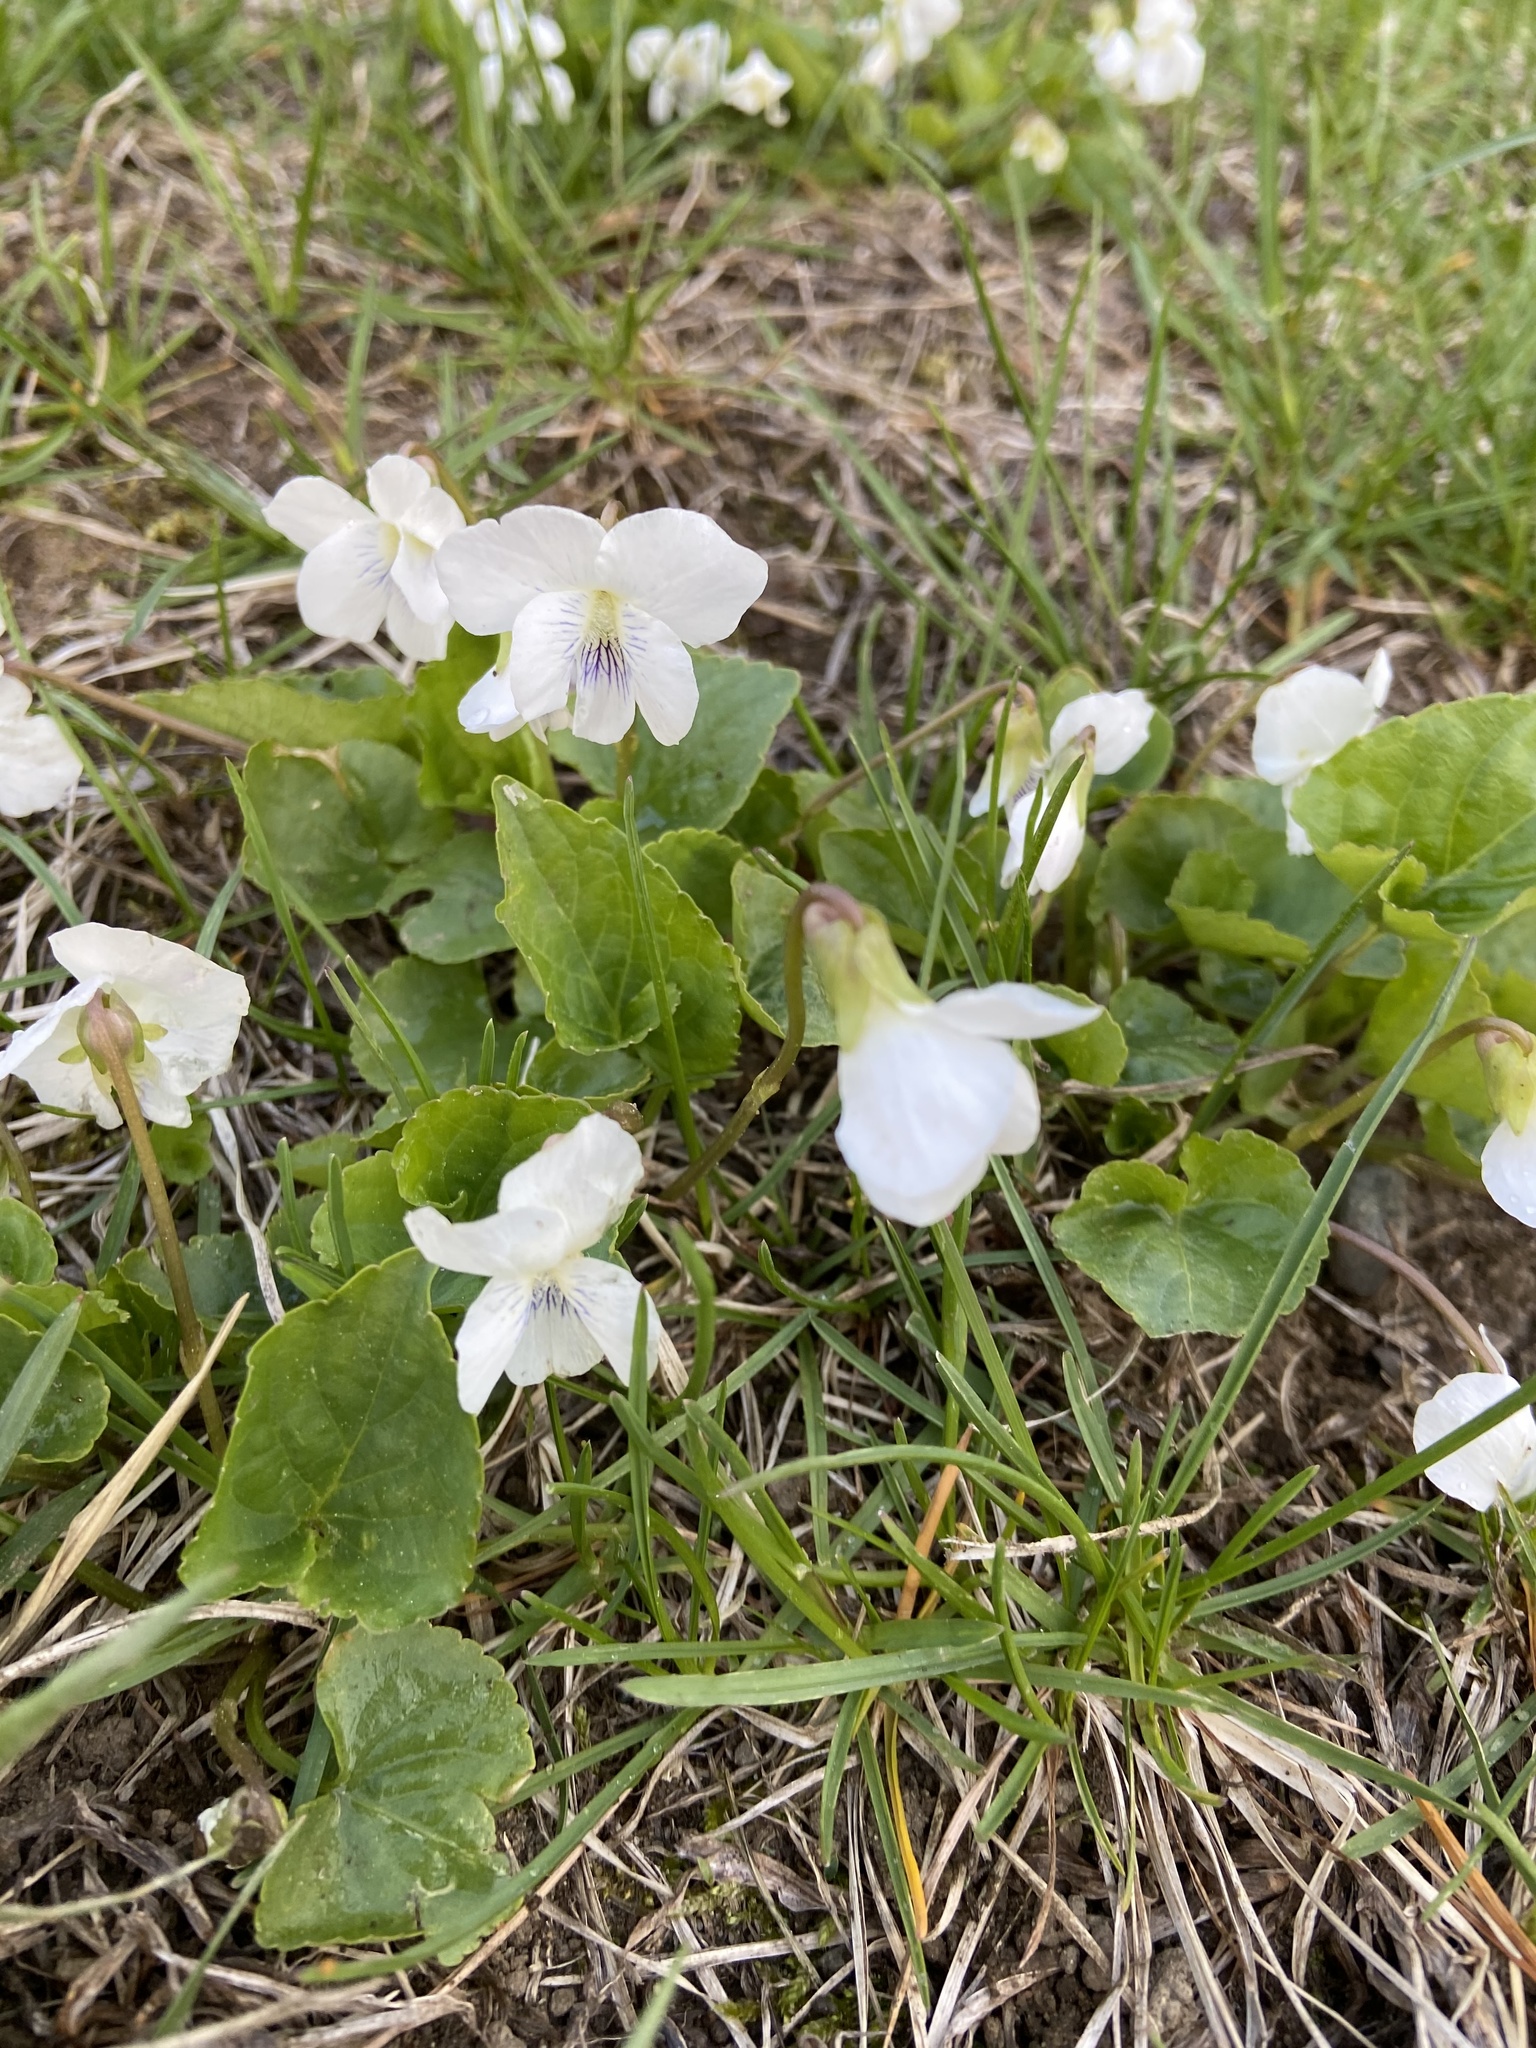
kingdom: Plantae
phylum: Tracheophyta
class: Magnoliopsida
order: Malpighiales
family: Violaceae
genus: Viola
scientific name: Viola minuscula
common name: Northern white violet
